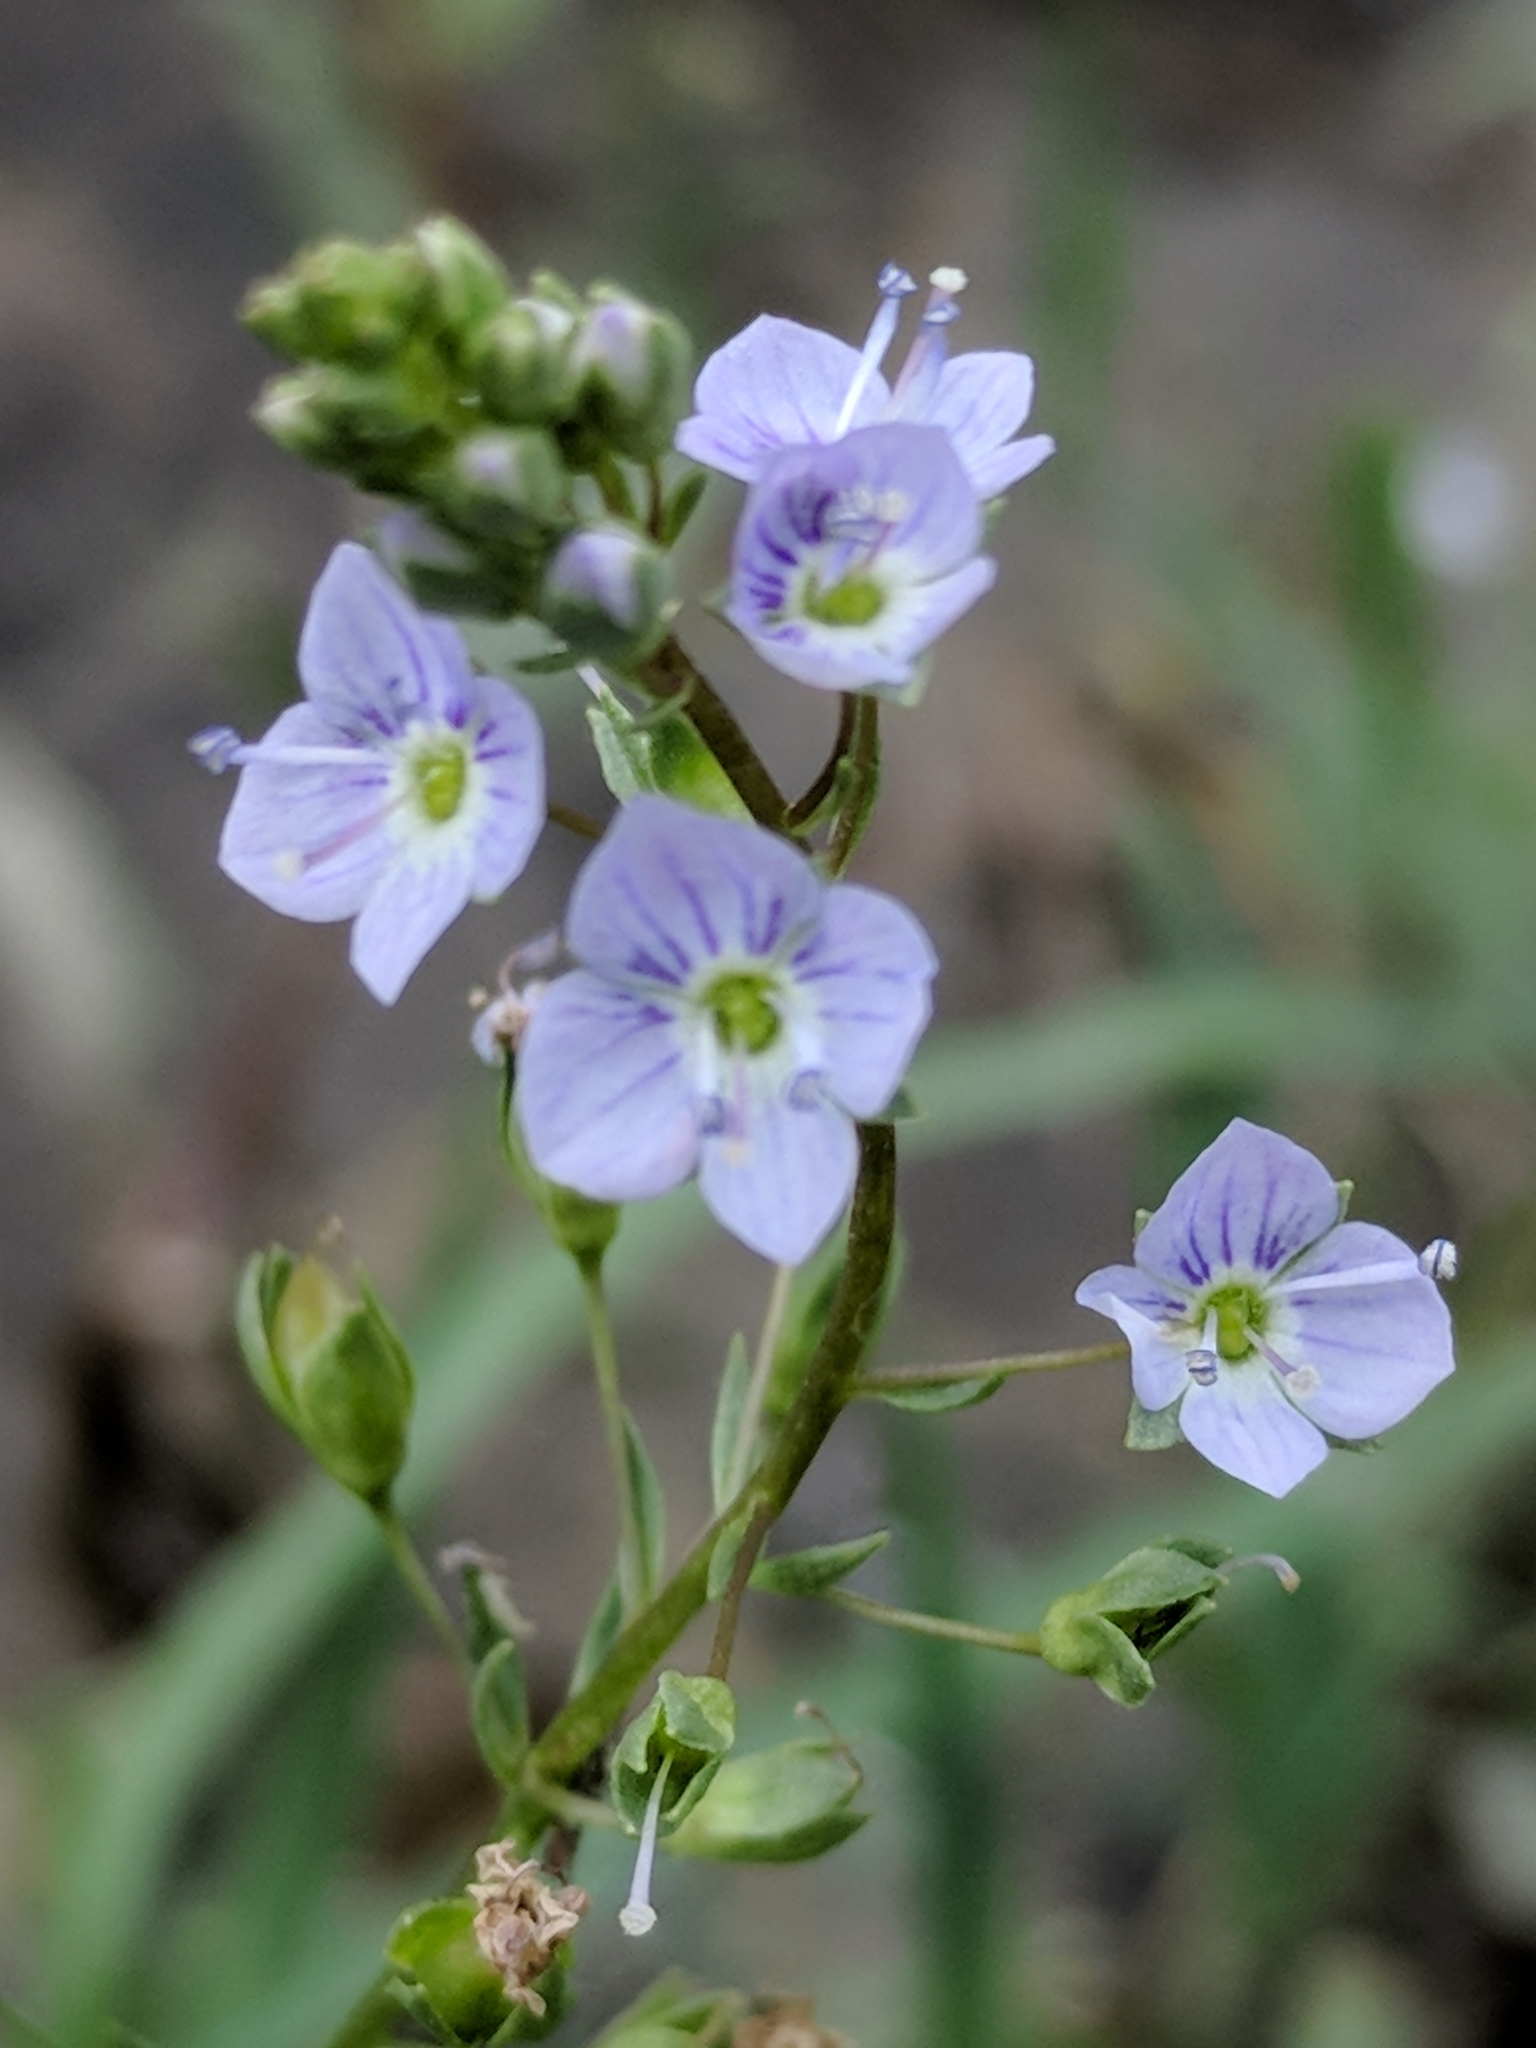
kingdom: Plantae
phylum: Tracheophyta
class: Magnoliopsida
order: Lamiales
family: Plantaginaceae
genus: Veronica
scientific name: Veronica anagallis-aquatica
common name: Water speedwell
